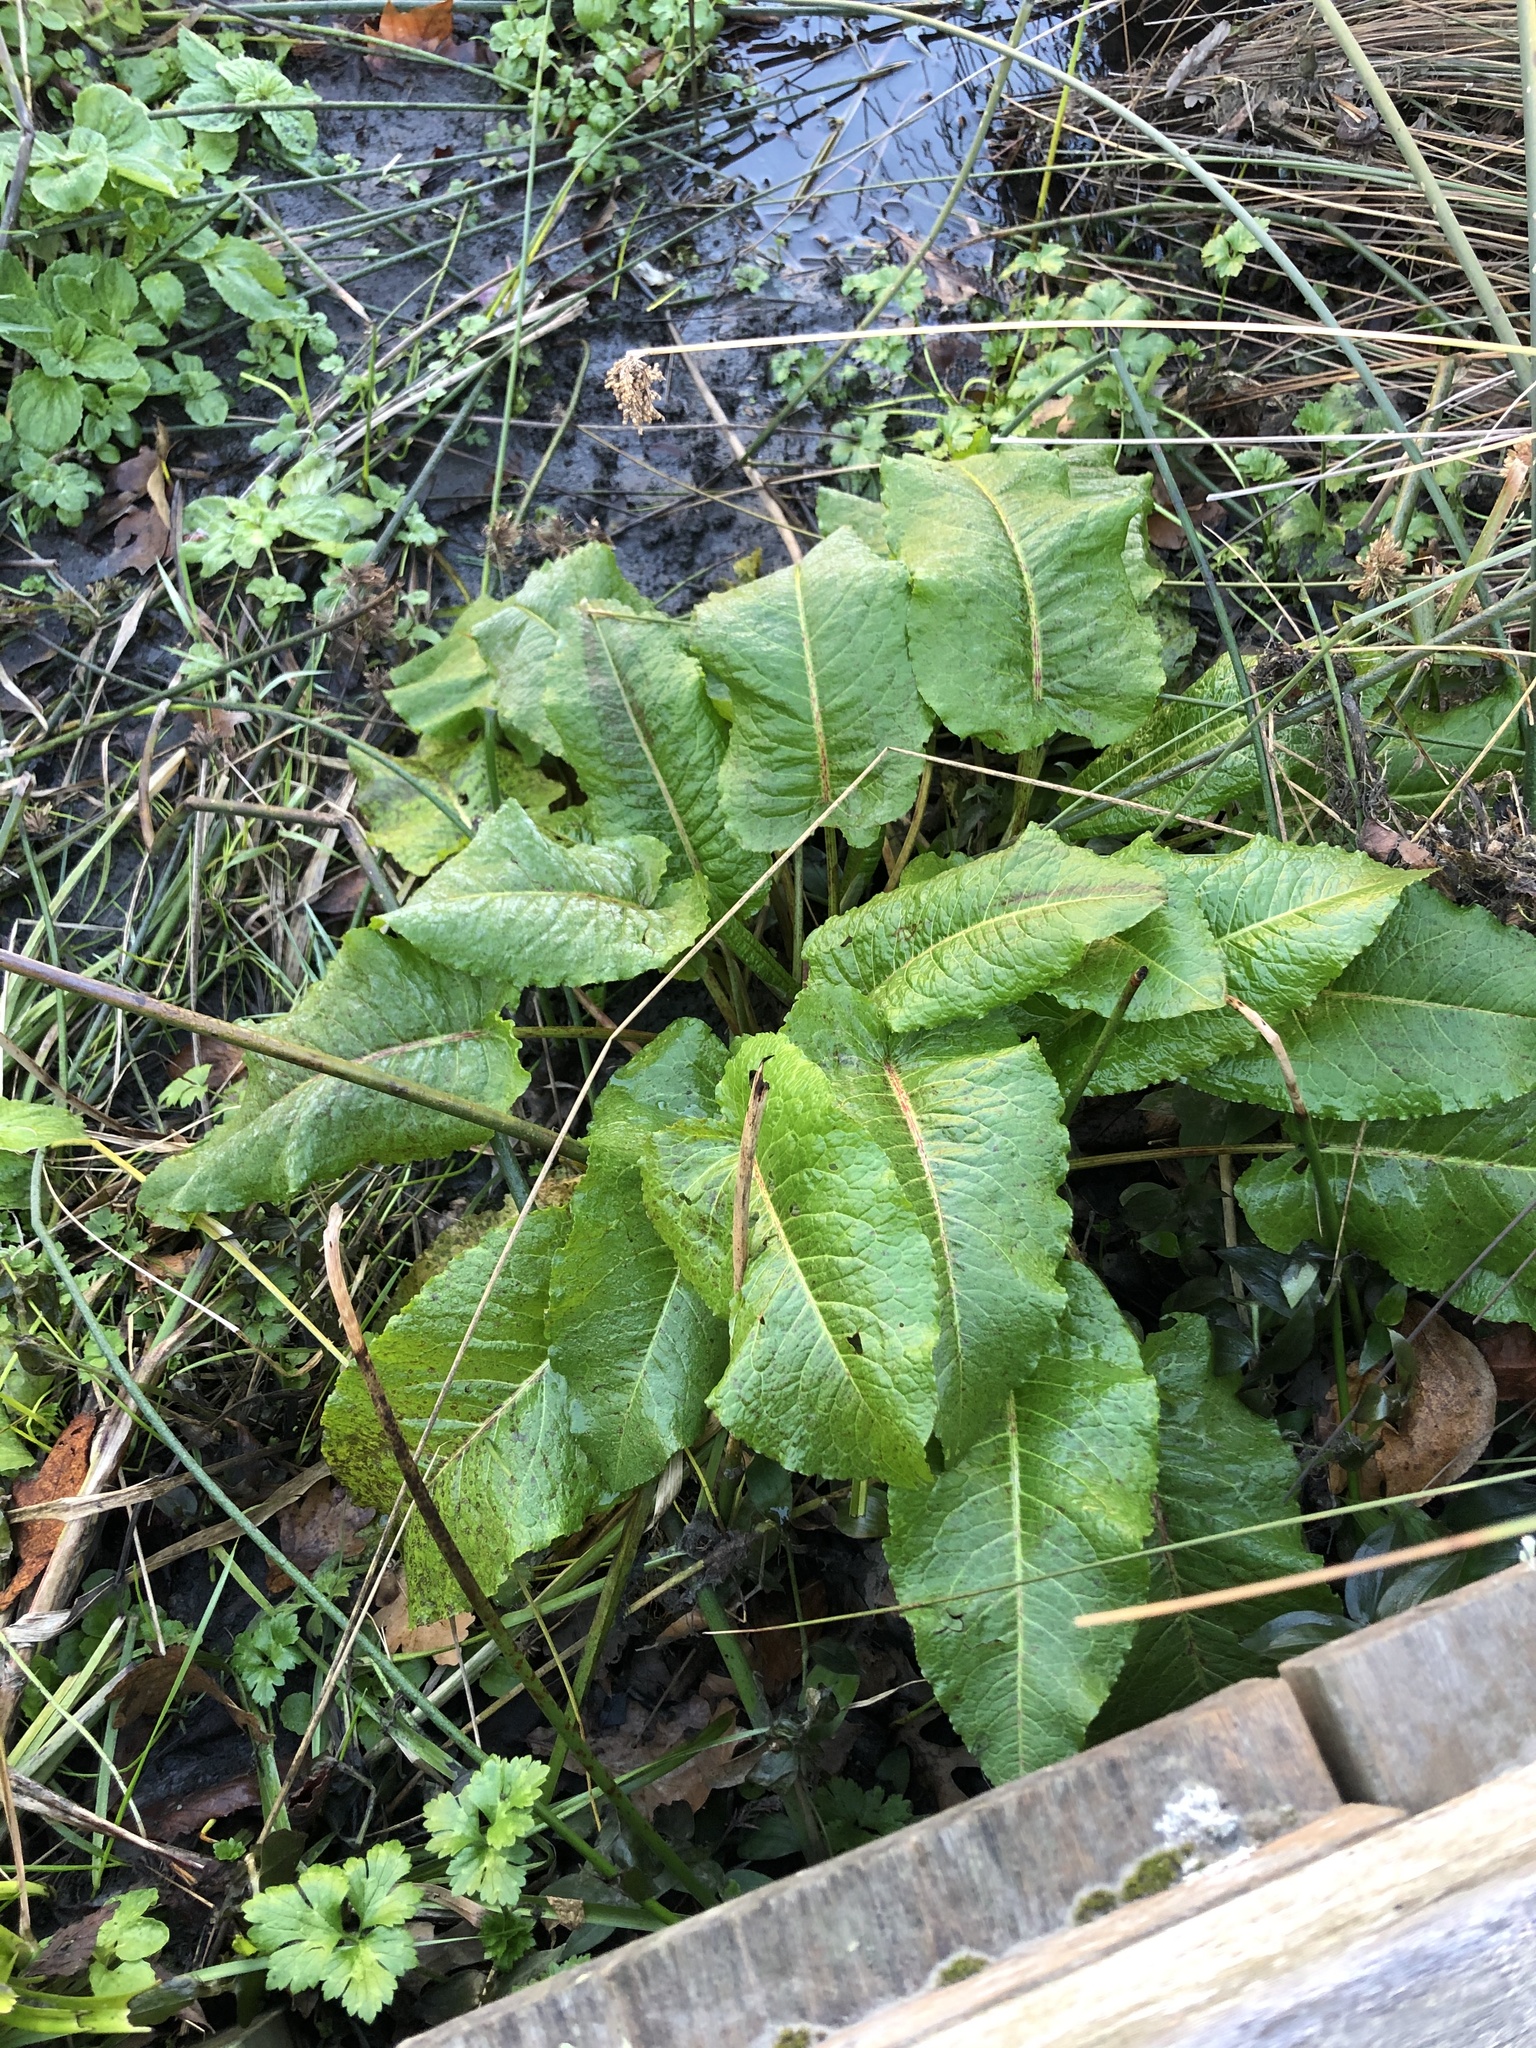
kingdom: Plantae
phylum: Tracheophyta
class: Magnoliopsida
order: Caryophyllales
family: Polygonaceae
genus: Rumex
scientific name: Rumex obtusifolius
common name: Bitter dock
